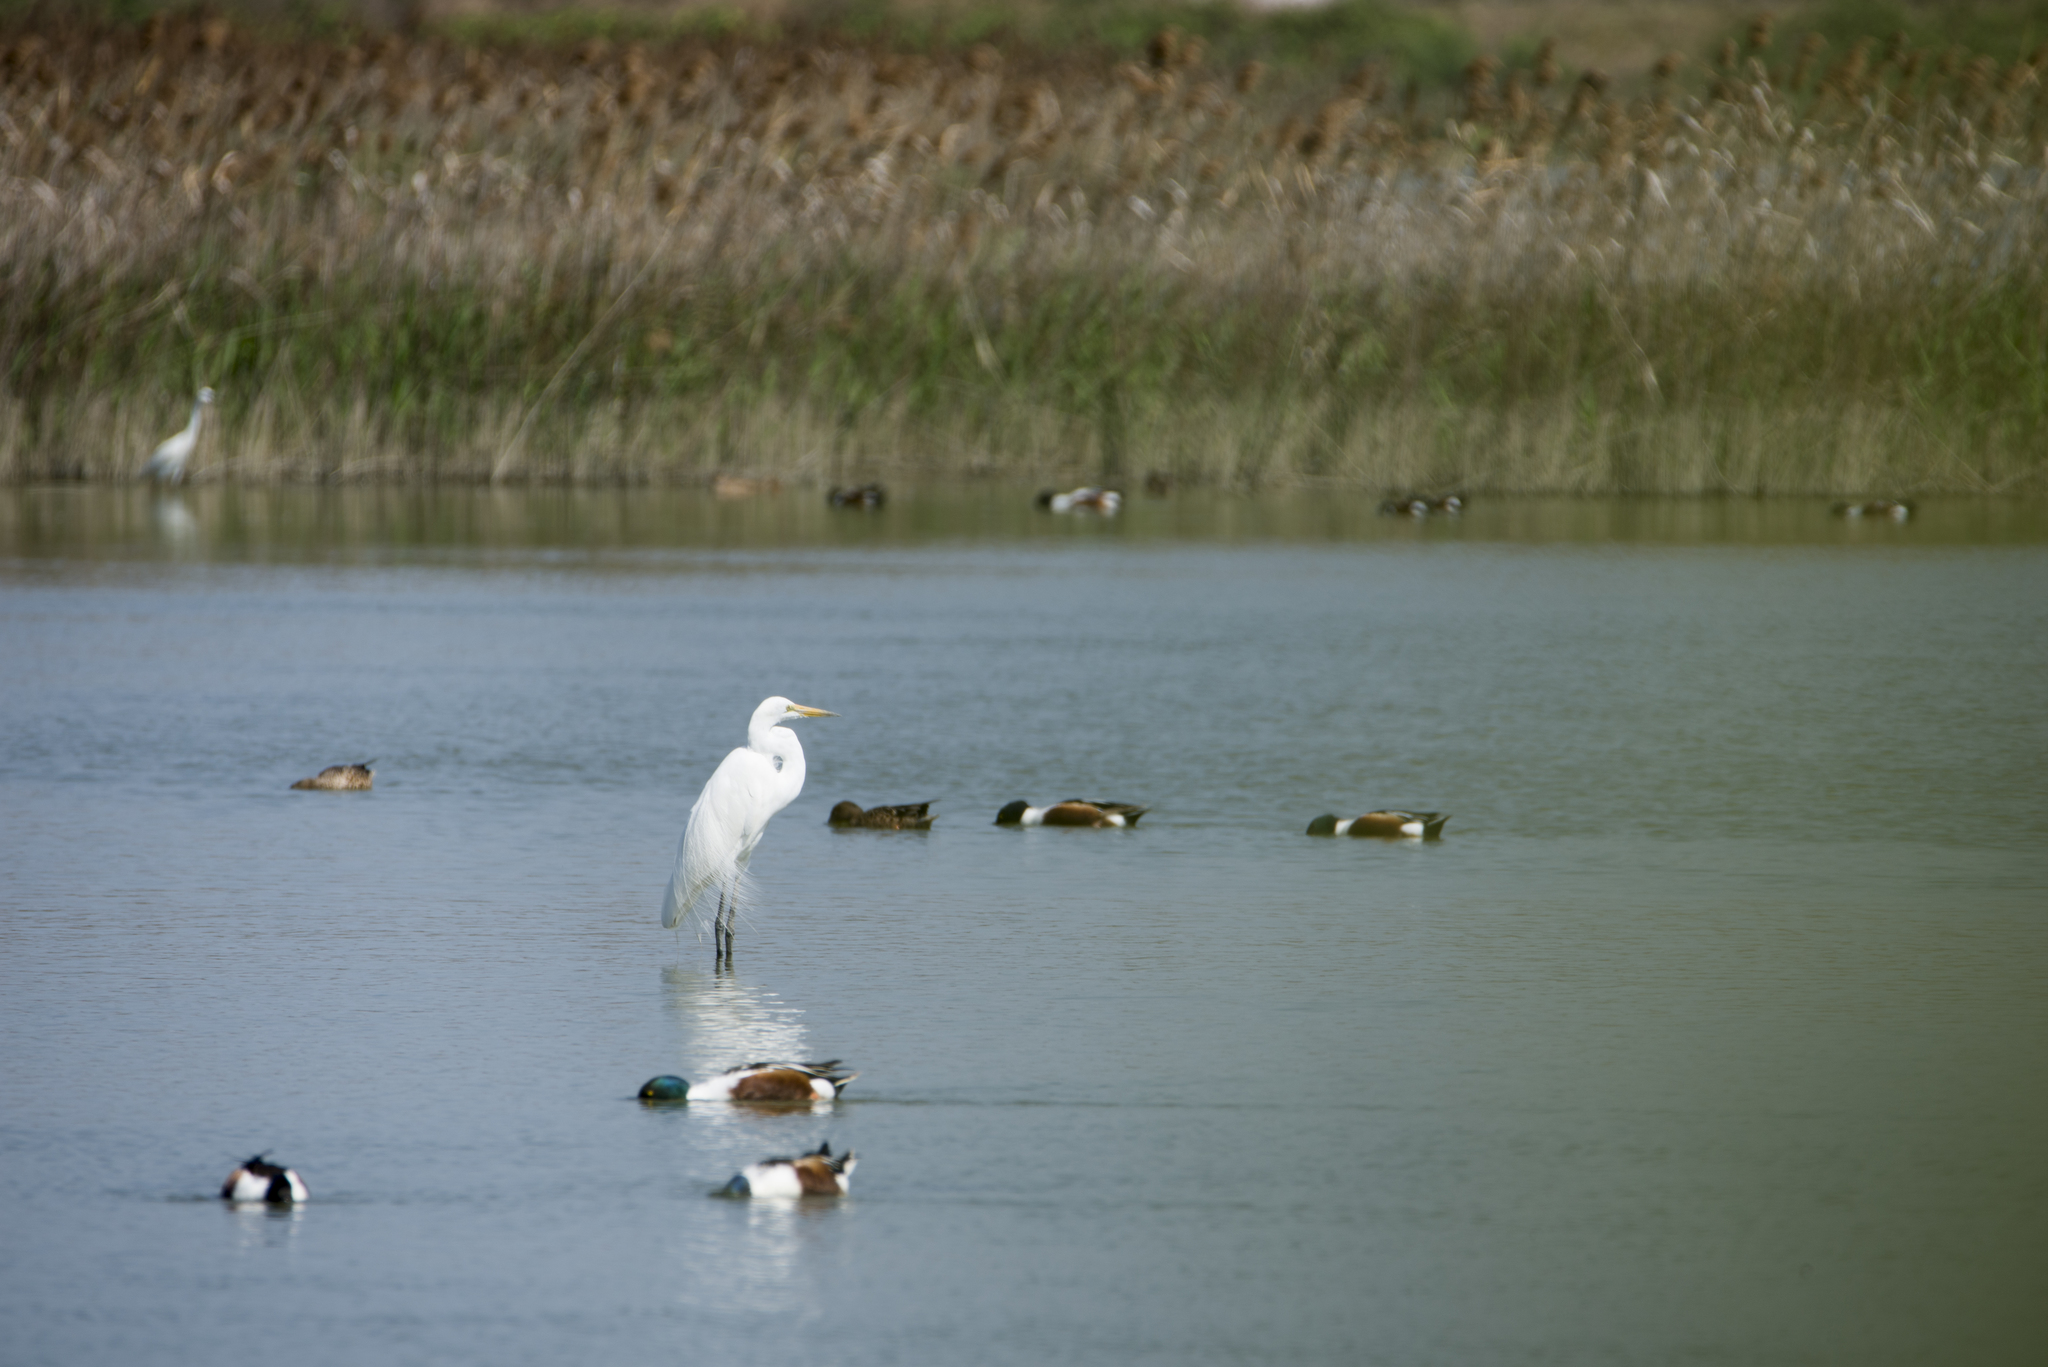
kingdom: Animalia
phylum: Chordata
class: Aves
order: Pelecaniformes
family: Ardeidae
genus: Ardea
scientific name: Ardea alba
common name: Great egret
